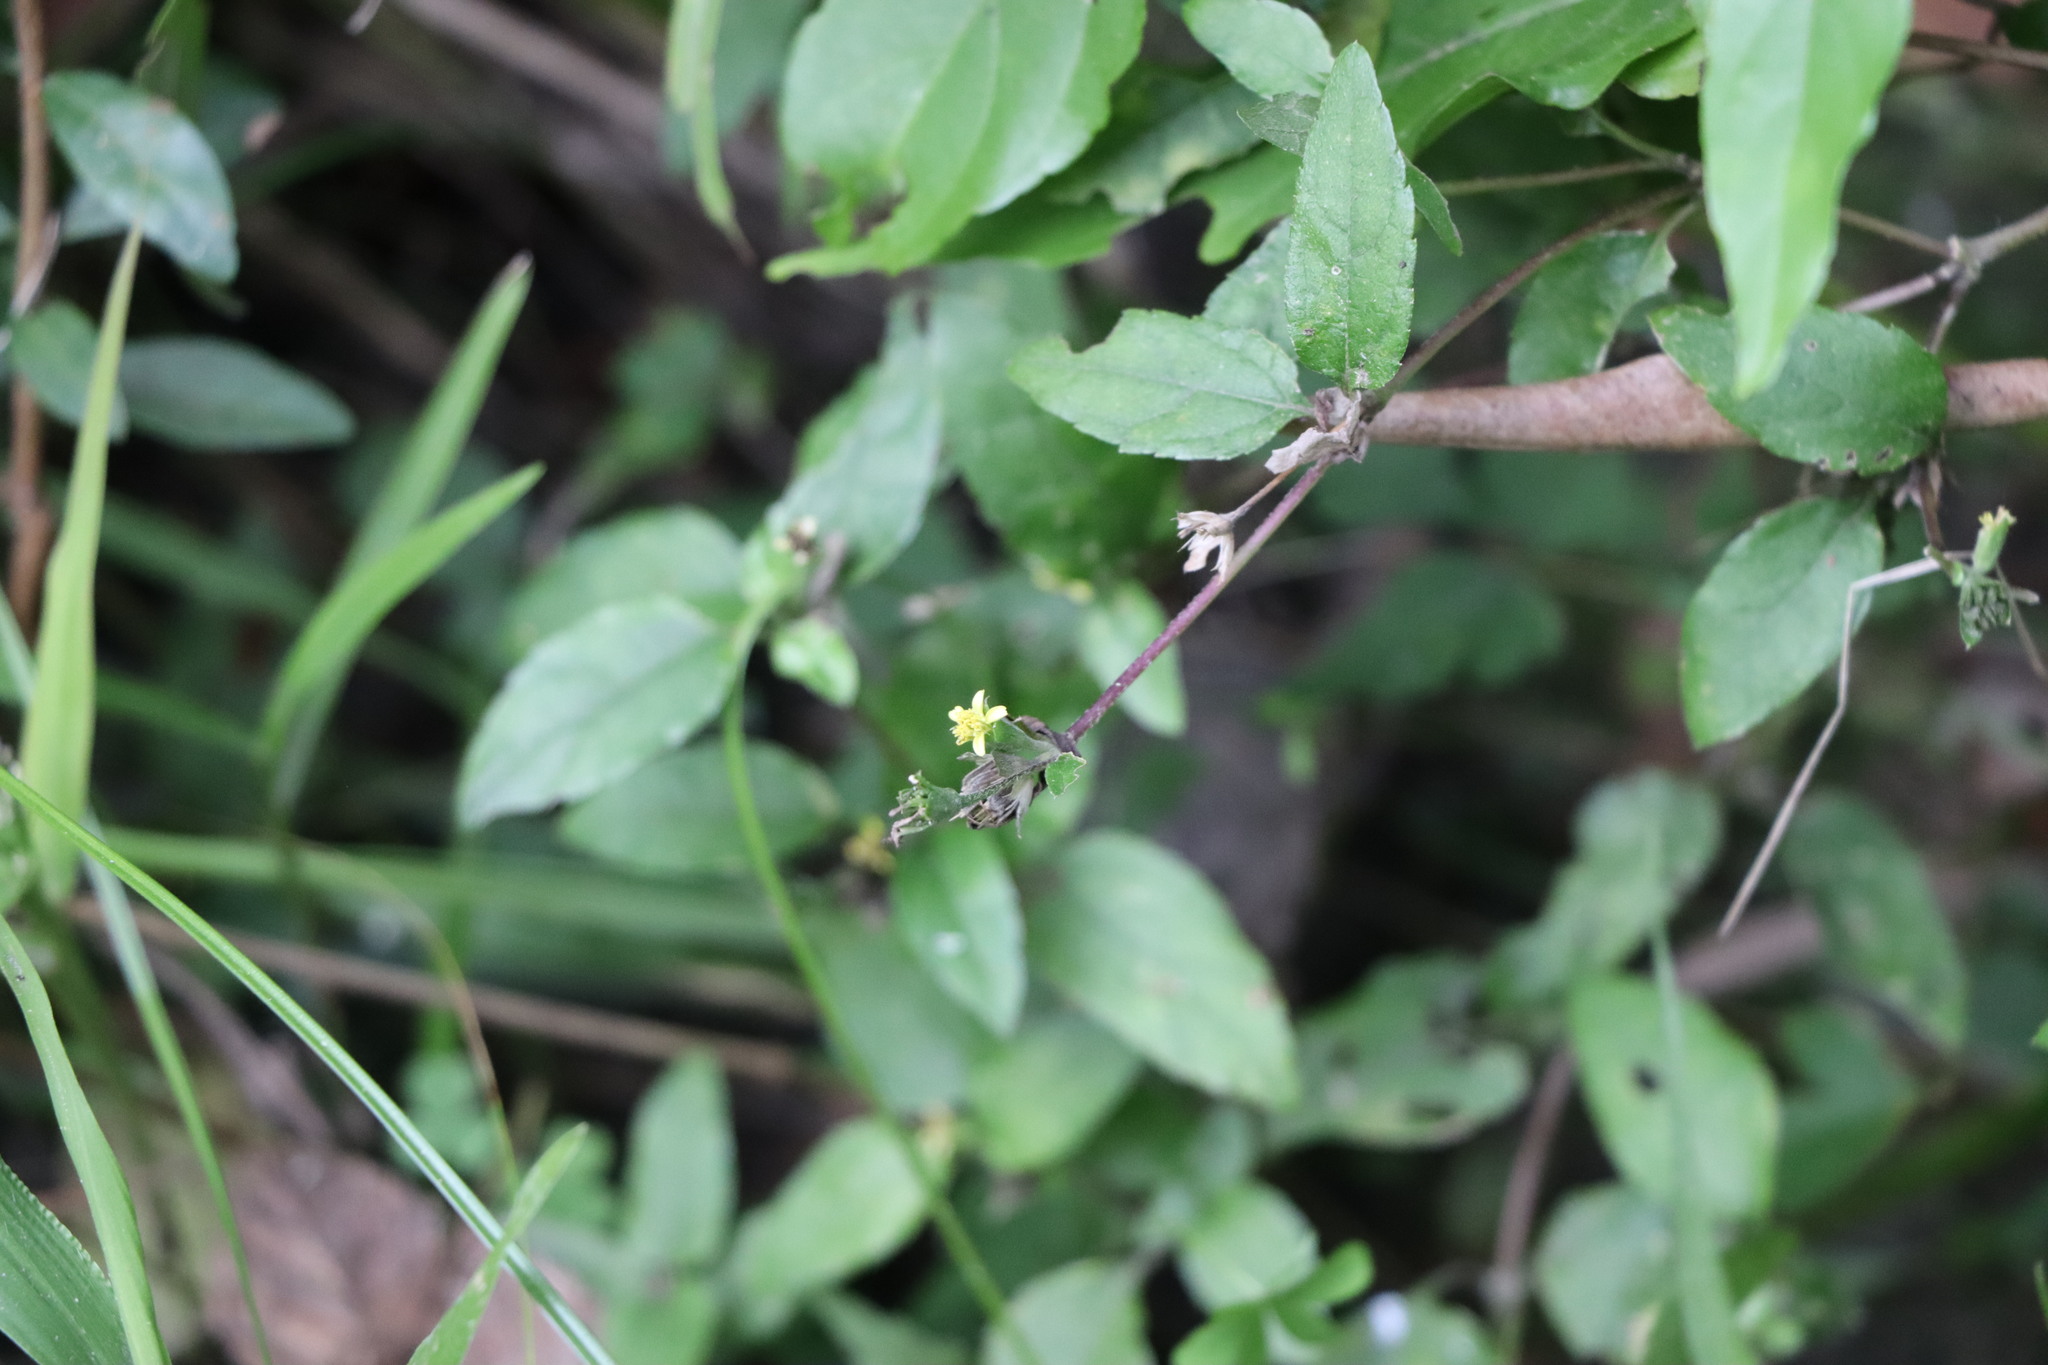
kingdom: Plantae
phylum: Tracheophyta
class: Magnoliopsida
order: Asterales
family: Asteraceae
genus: Calyptocarpus
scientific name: Calyptocarpus brasiliensis
